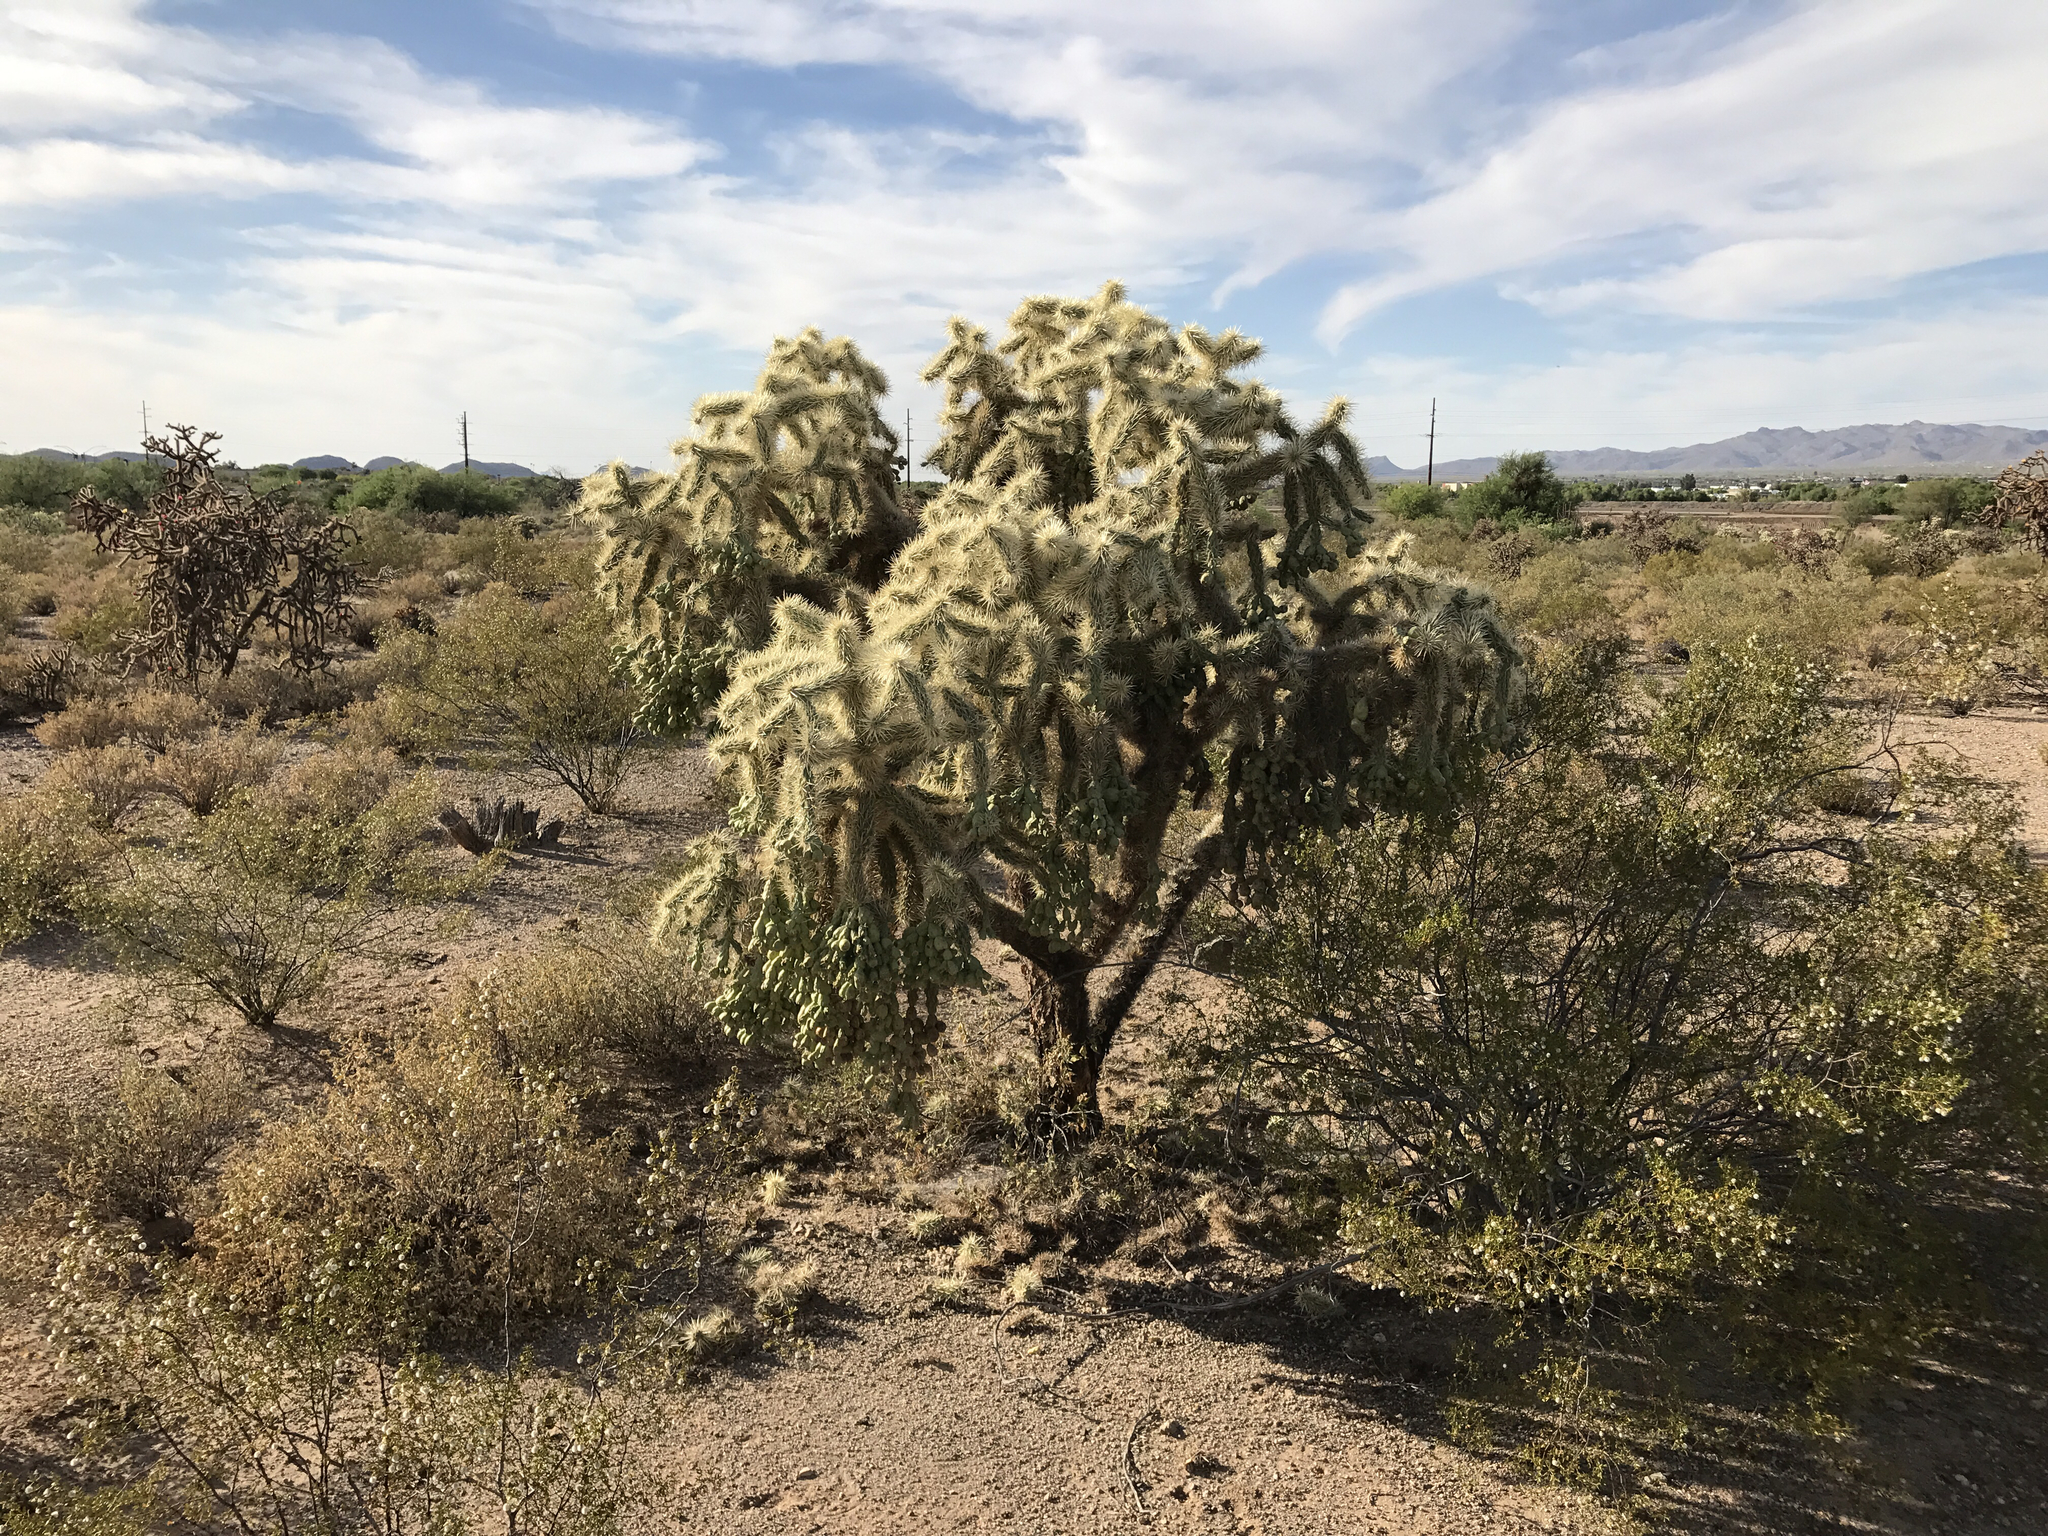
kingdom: Plantae
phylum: Tracheophyta
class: Magnoliopsida
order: Caryophyllales
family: Cactaceae
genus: Cylindropuntia
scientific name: Cylindropuntia fulgida
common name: Jumping cholla
